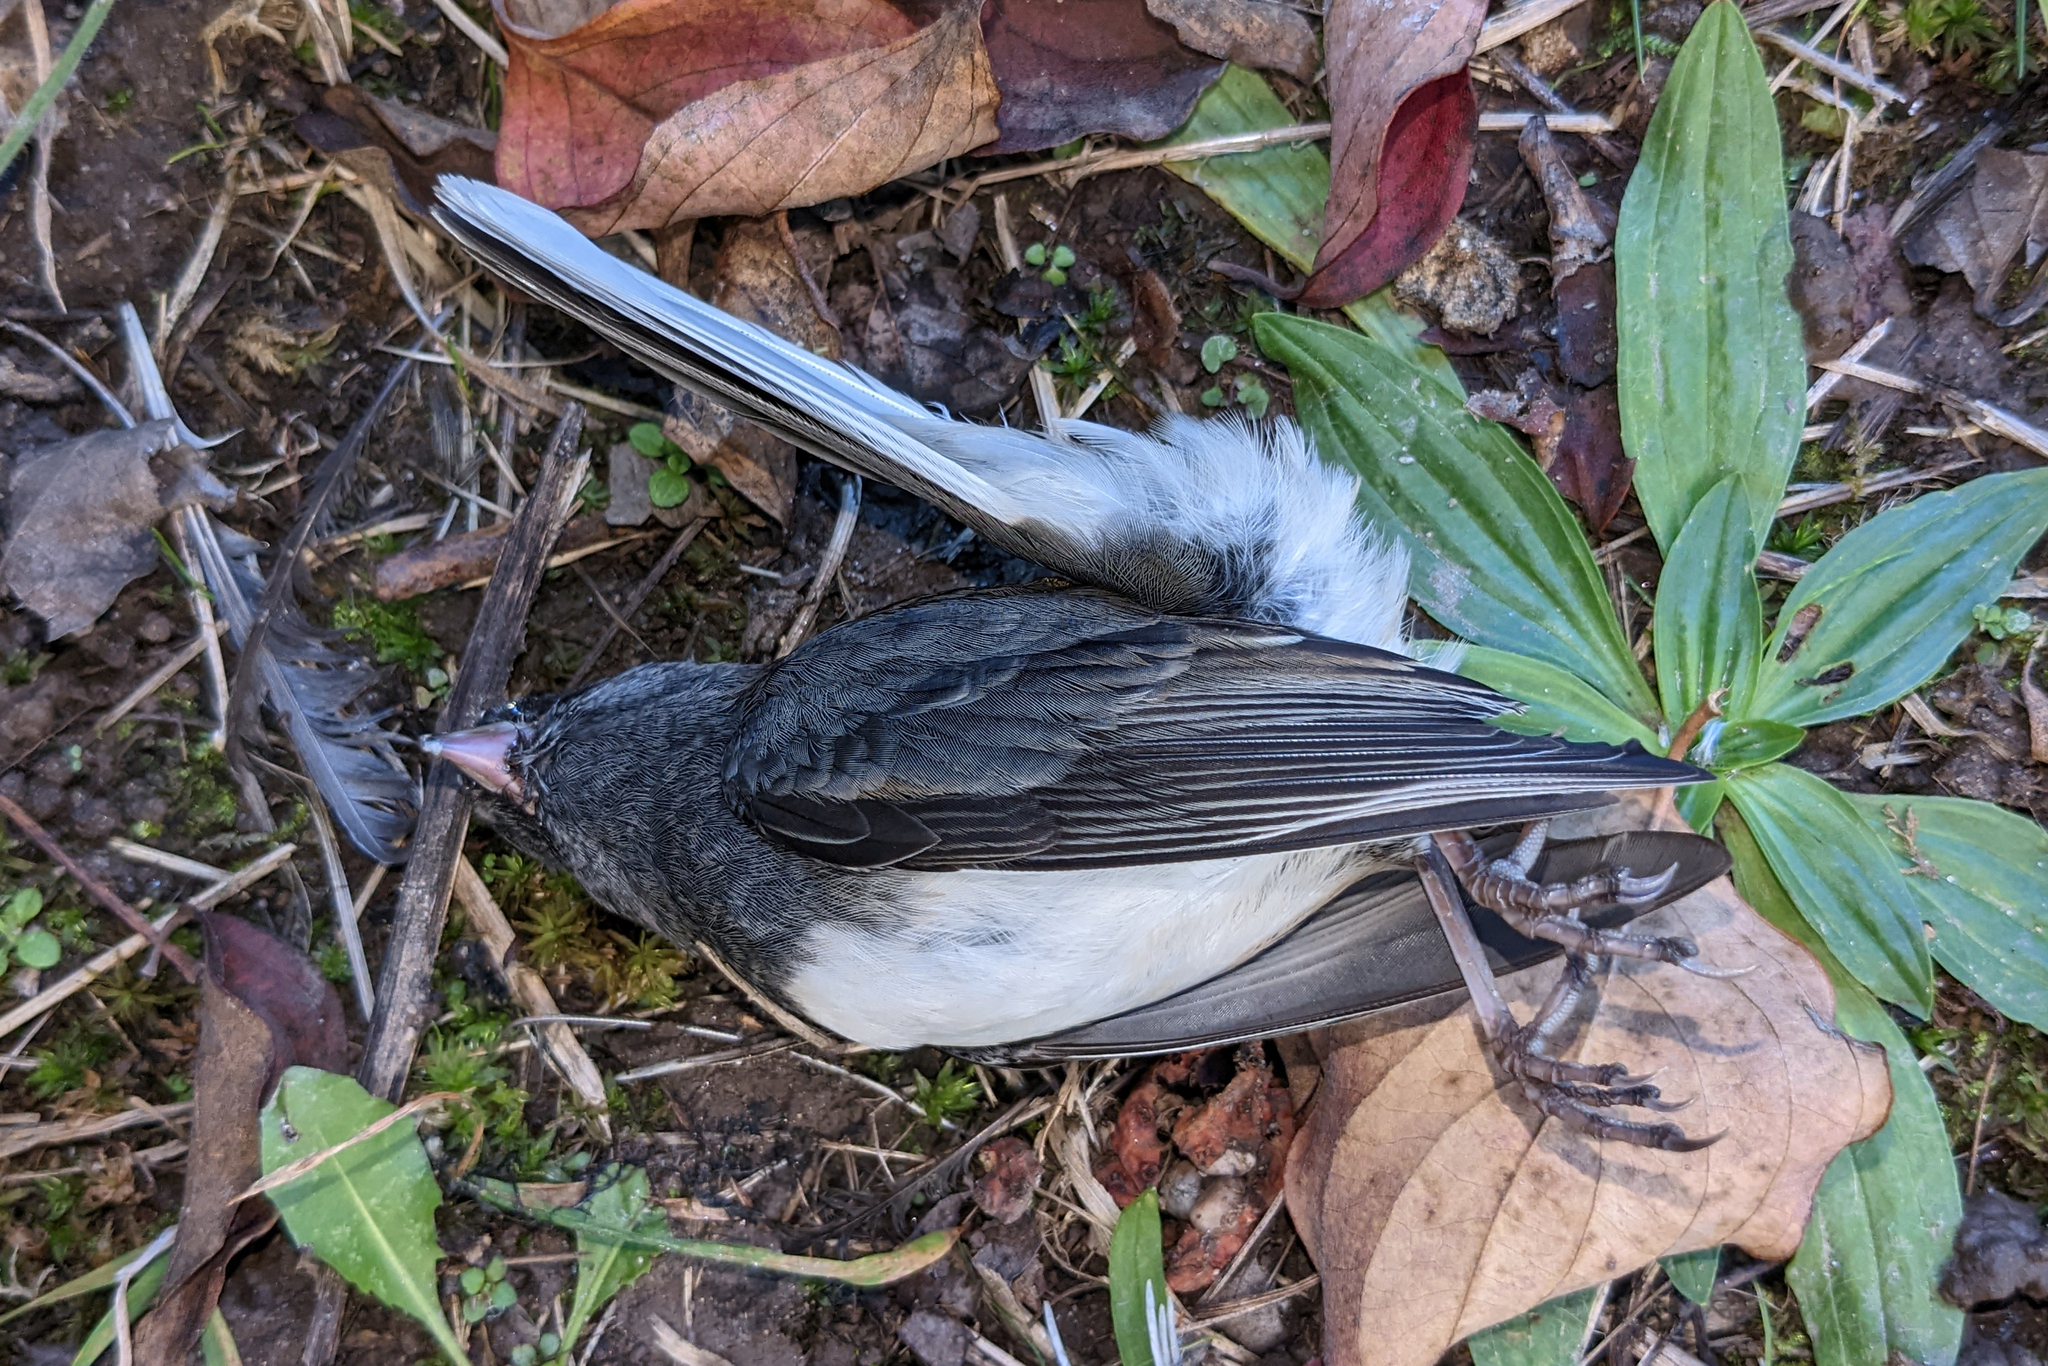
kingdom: Animalia
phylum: Chordata
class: Aves
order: Passeriformes
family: Passerellidae
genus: Junco
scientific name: Junco hyemalis
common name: Dark-eyed junco
